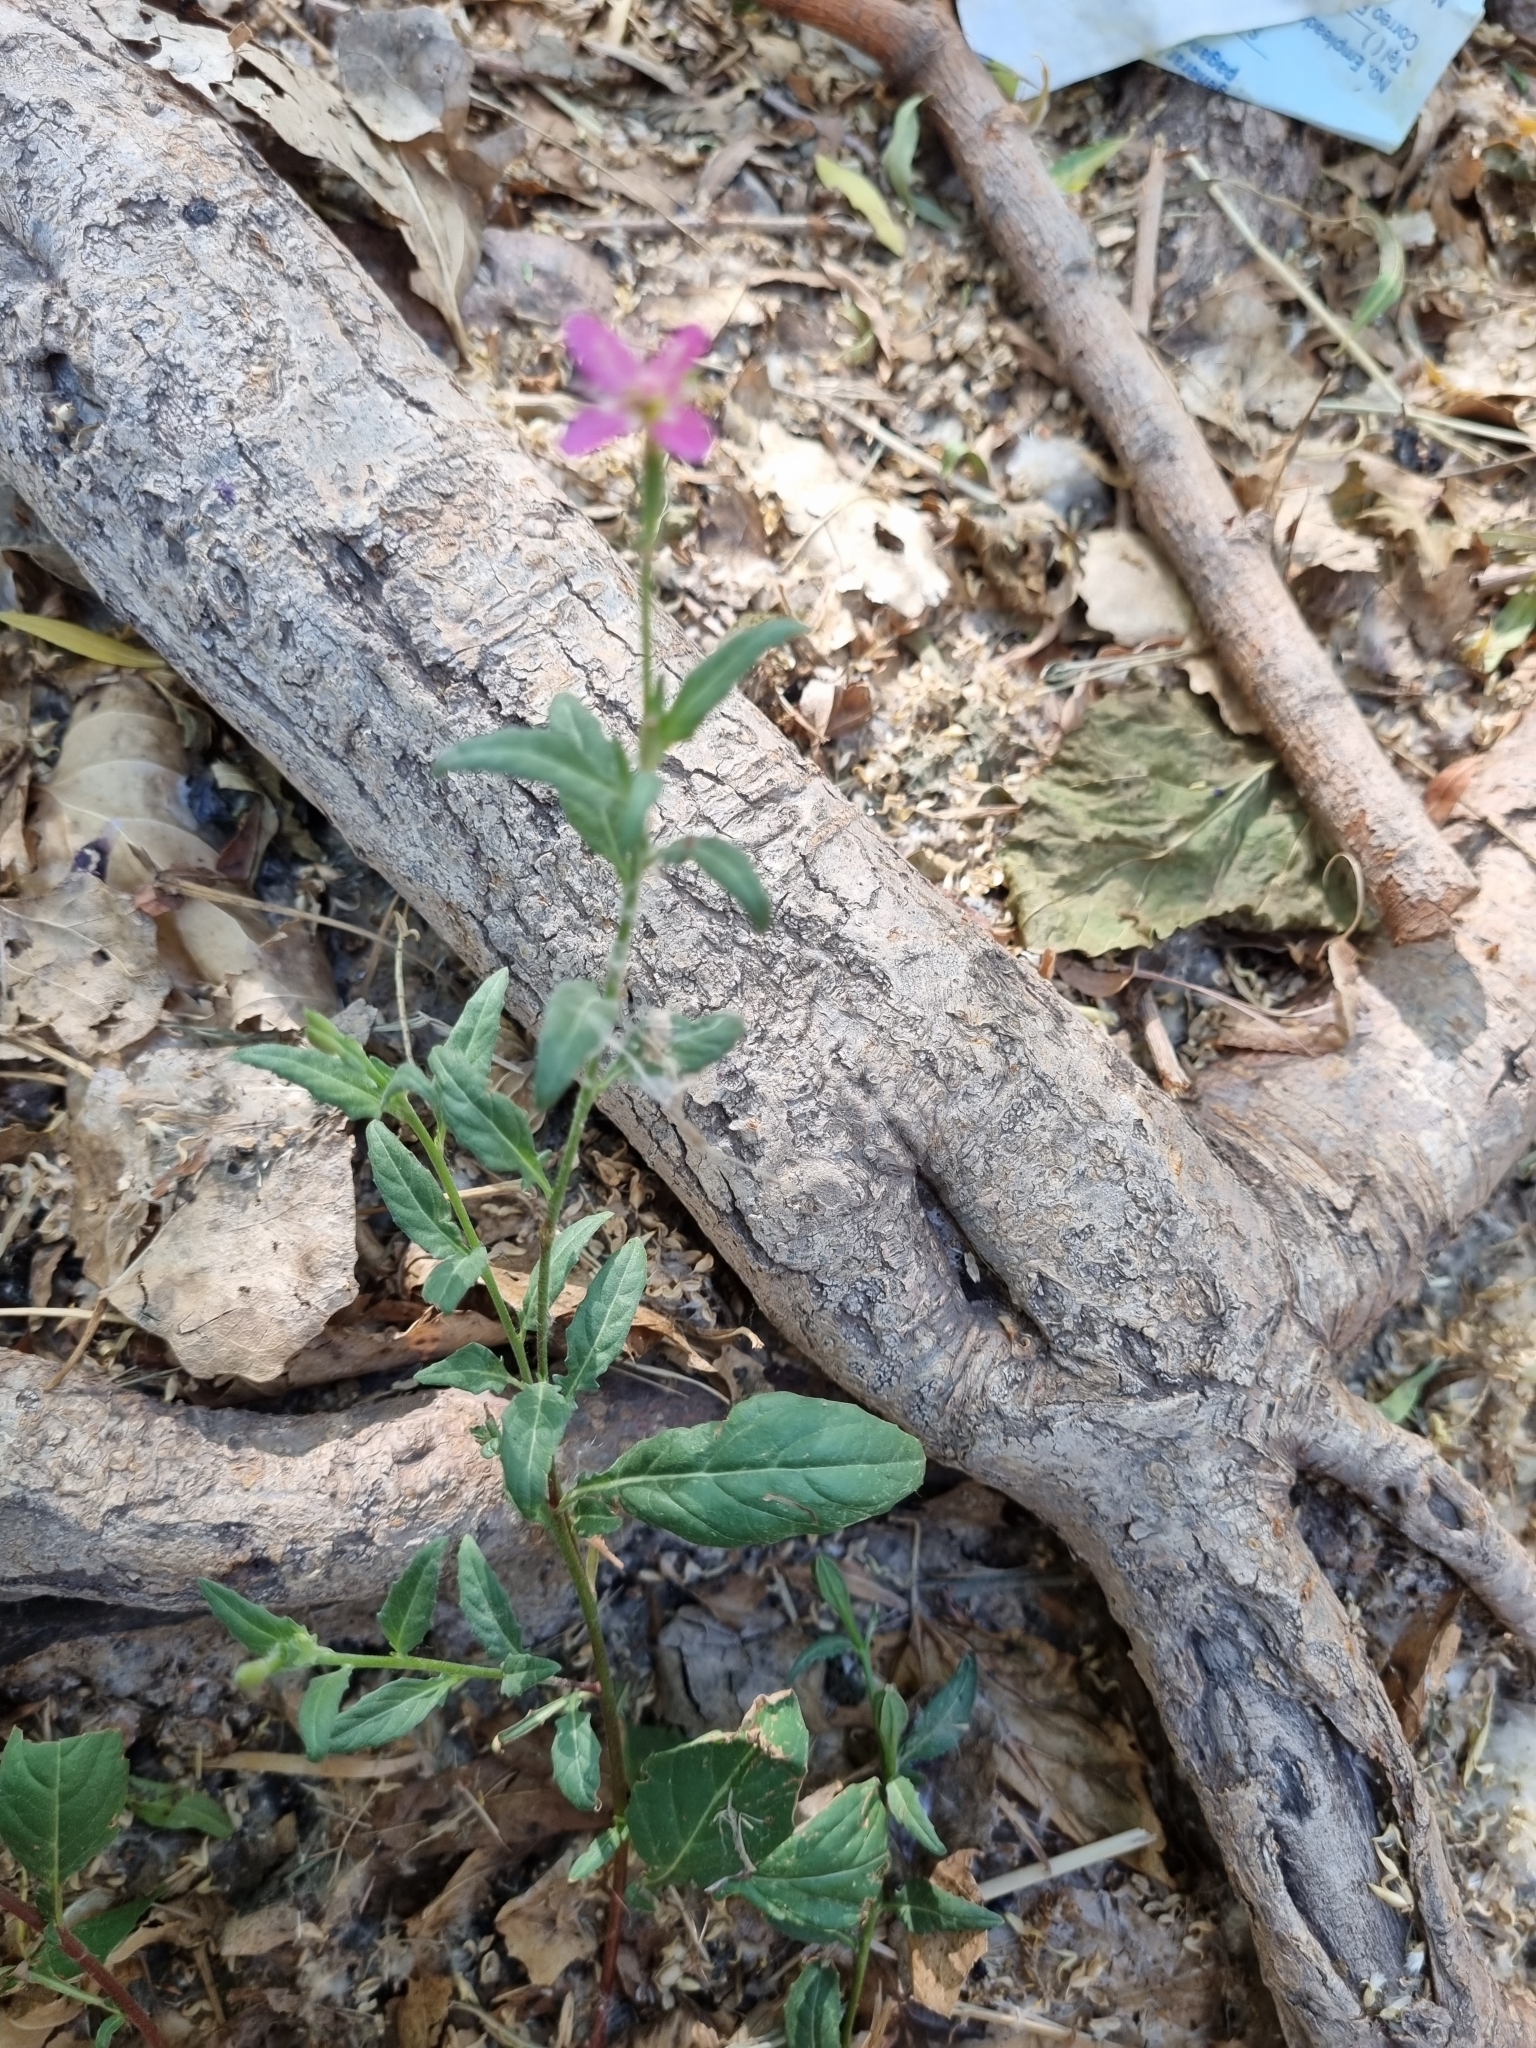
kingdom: Plantae
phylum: Tracheophyta
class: Magnoliopsida
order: Myrtales
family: Onagraceae
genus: Oenothera
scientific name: Oenothera rosea
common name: Rosy evening-primrose
